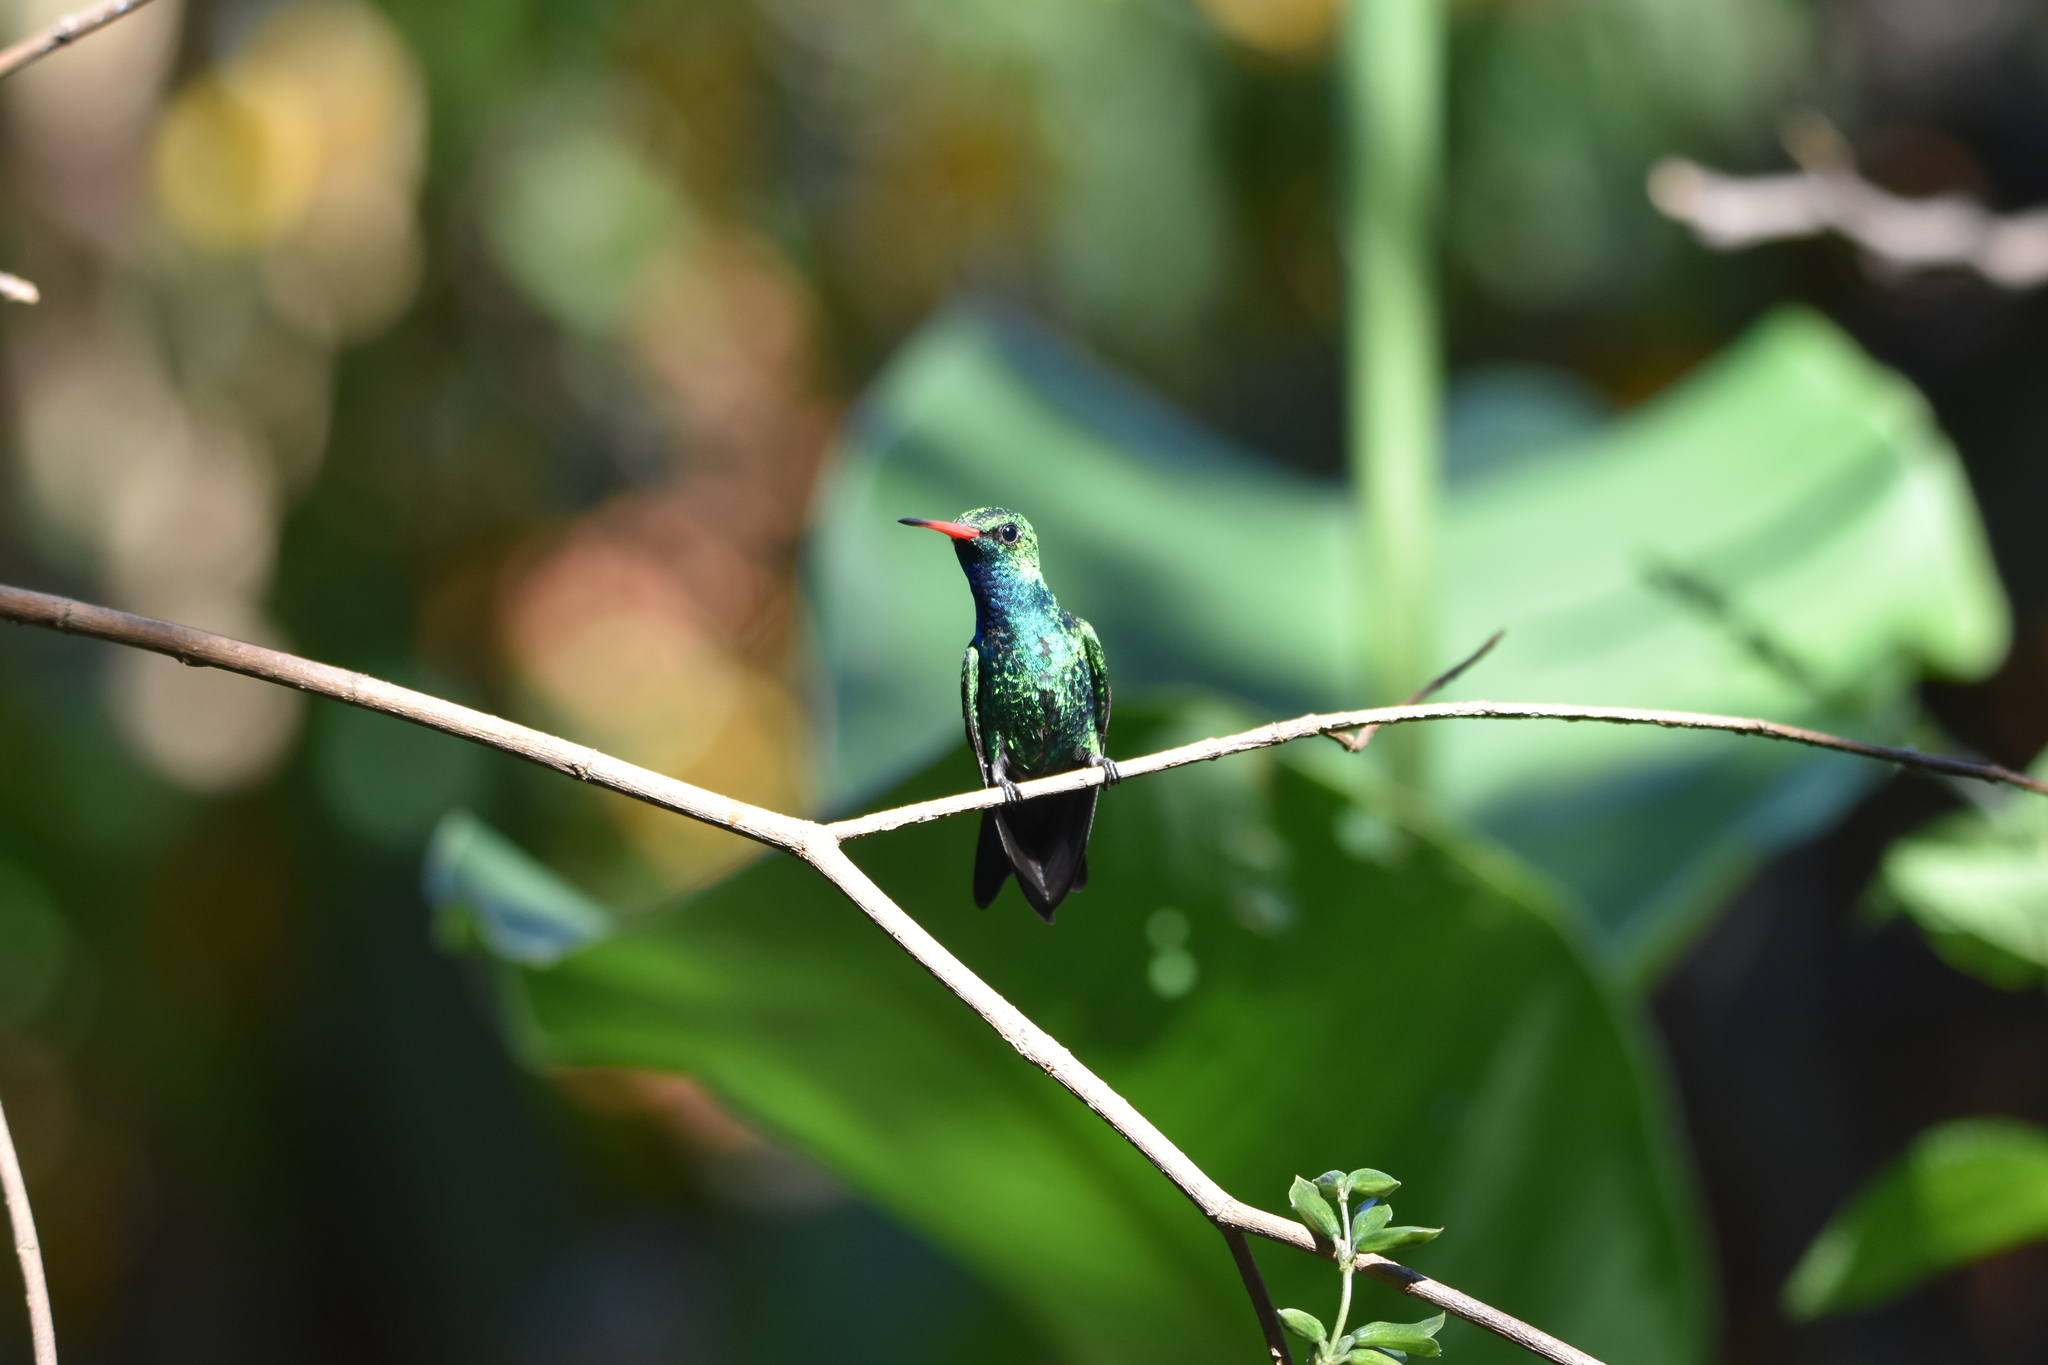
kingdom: Animalia
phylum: Chordata
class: Aves
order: Apodiformes
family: Trochilidae
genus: Chlorostilbon
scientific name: Chlorostilbon lucidus
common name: Glittering-bellied emerald
